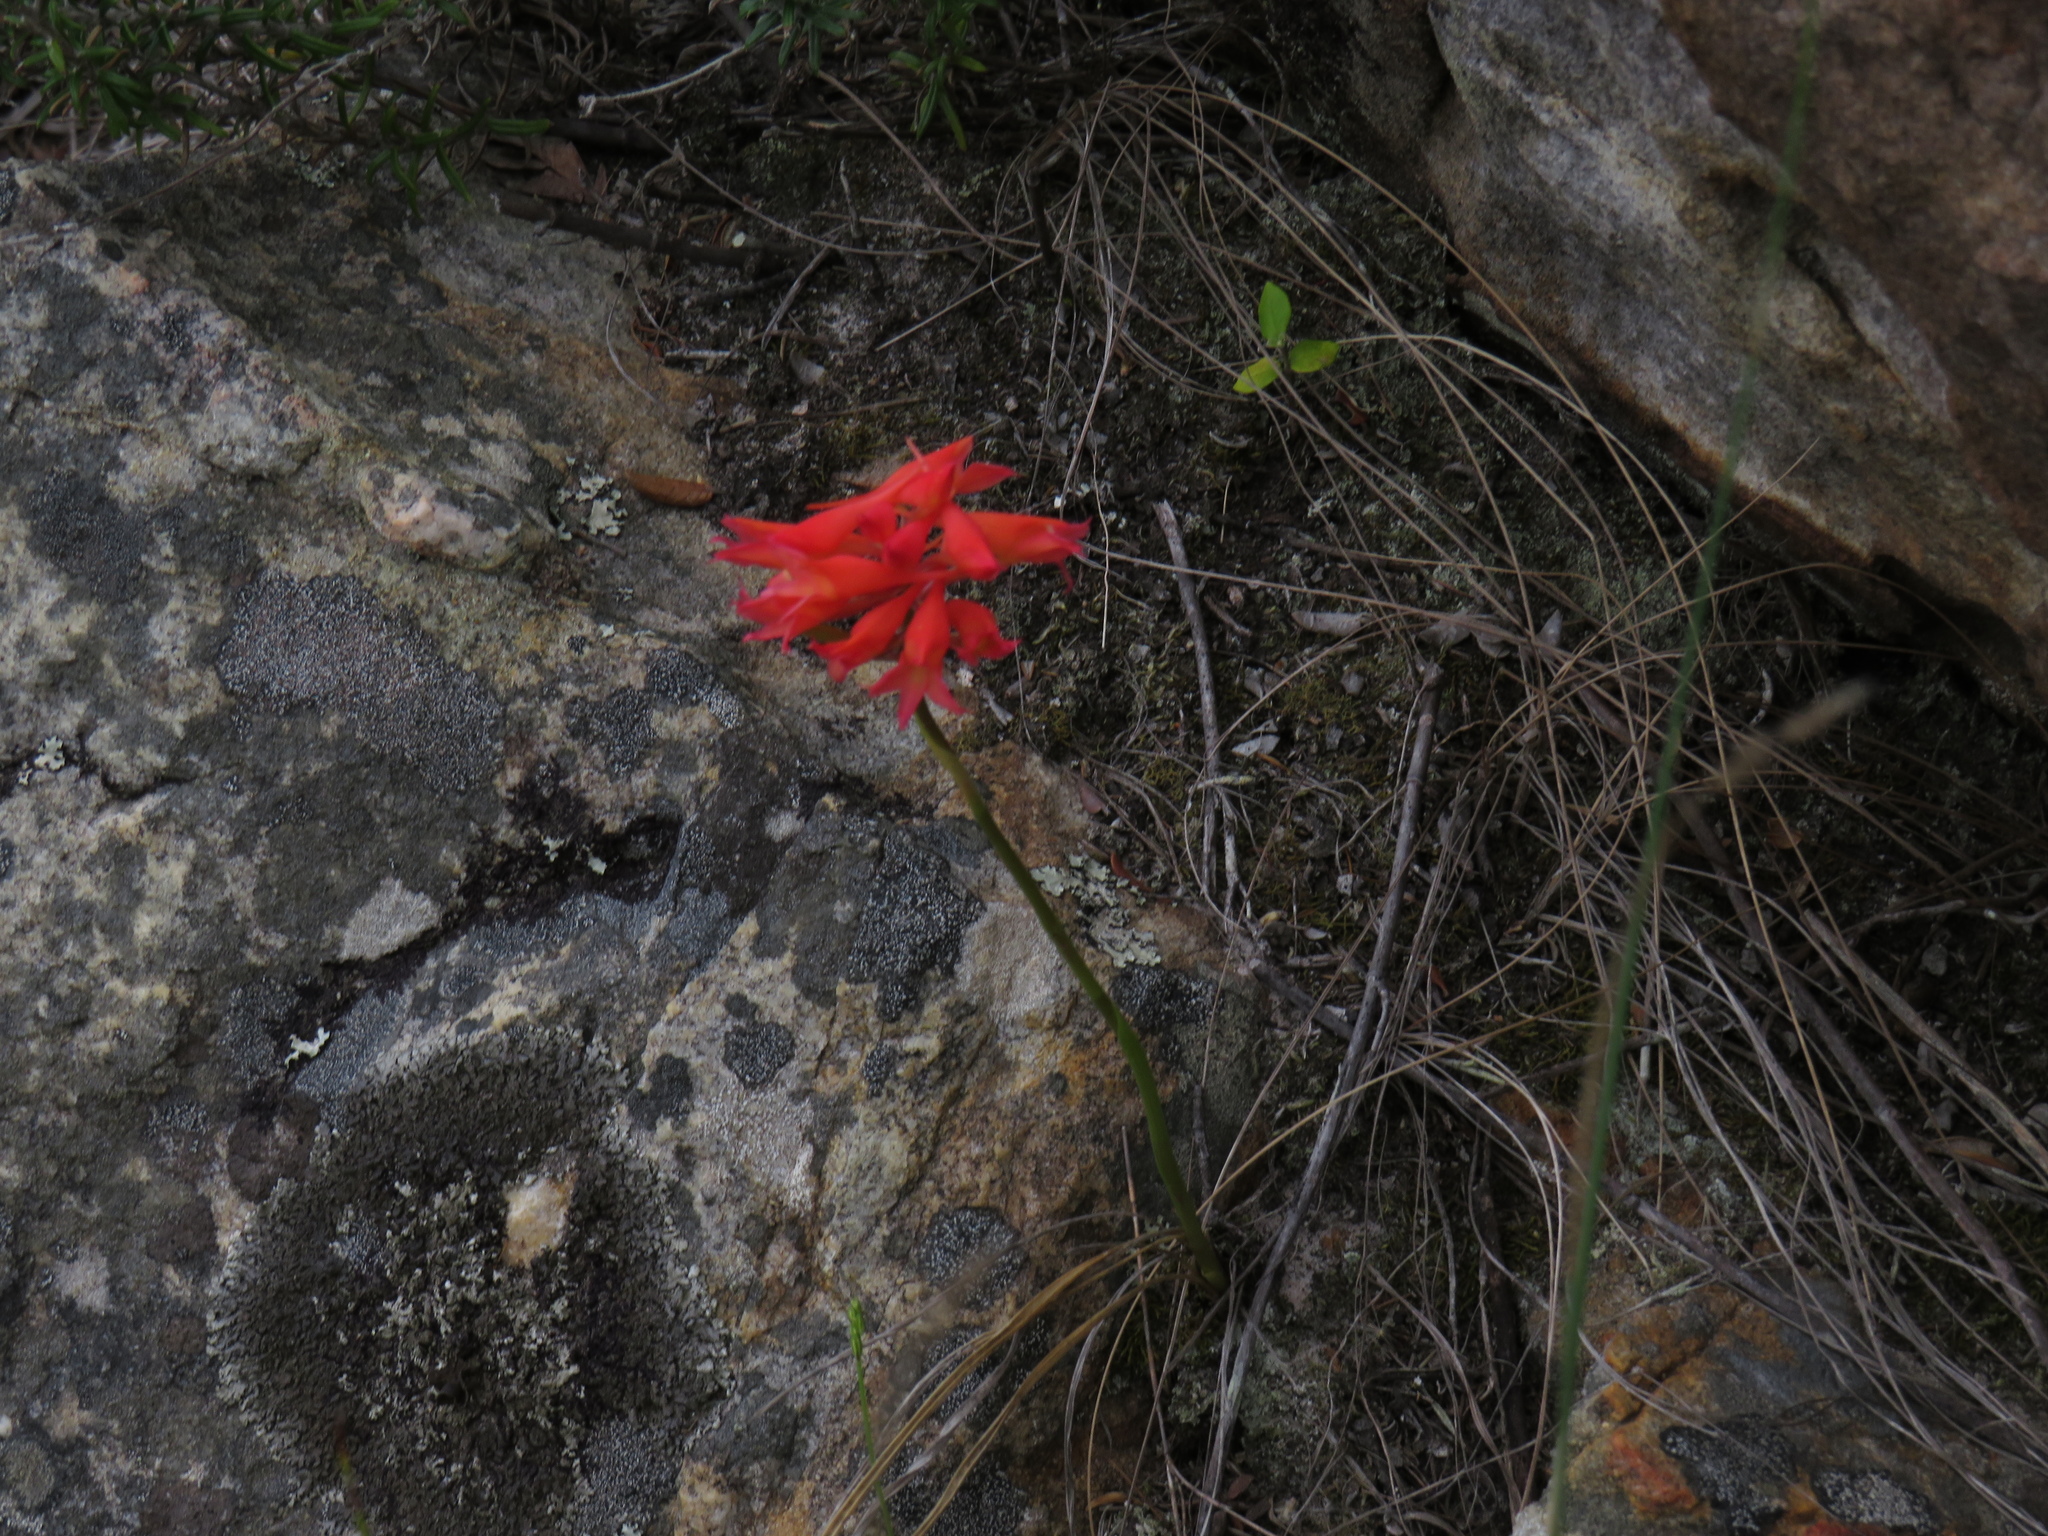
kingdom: Plantae
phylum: Tracheophyta
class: Liliopsida
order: Asparagales
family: Orchidaceae
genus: Disa
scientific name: Disa ferruginea
